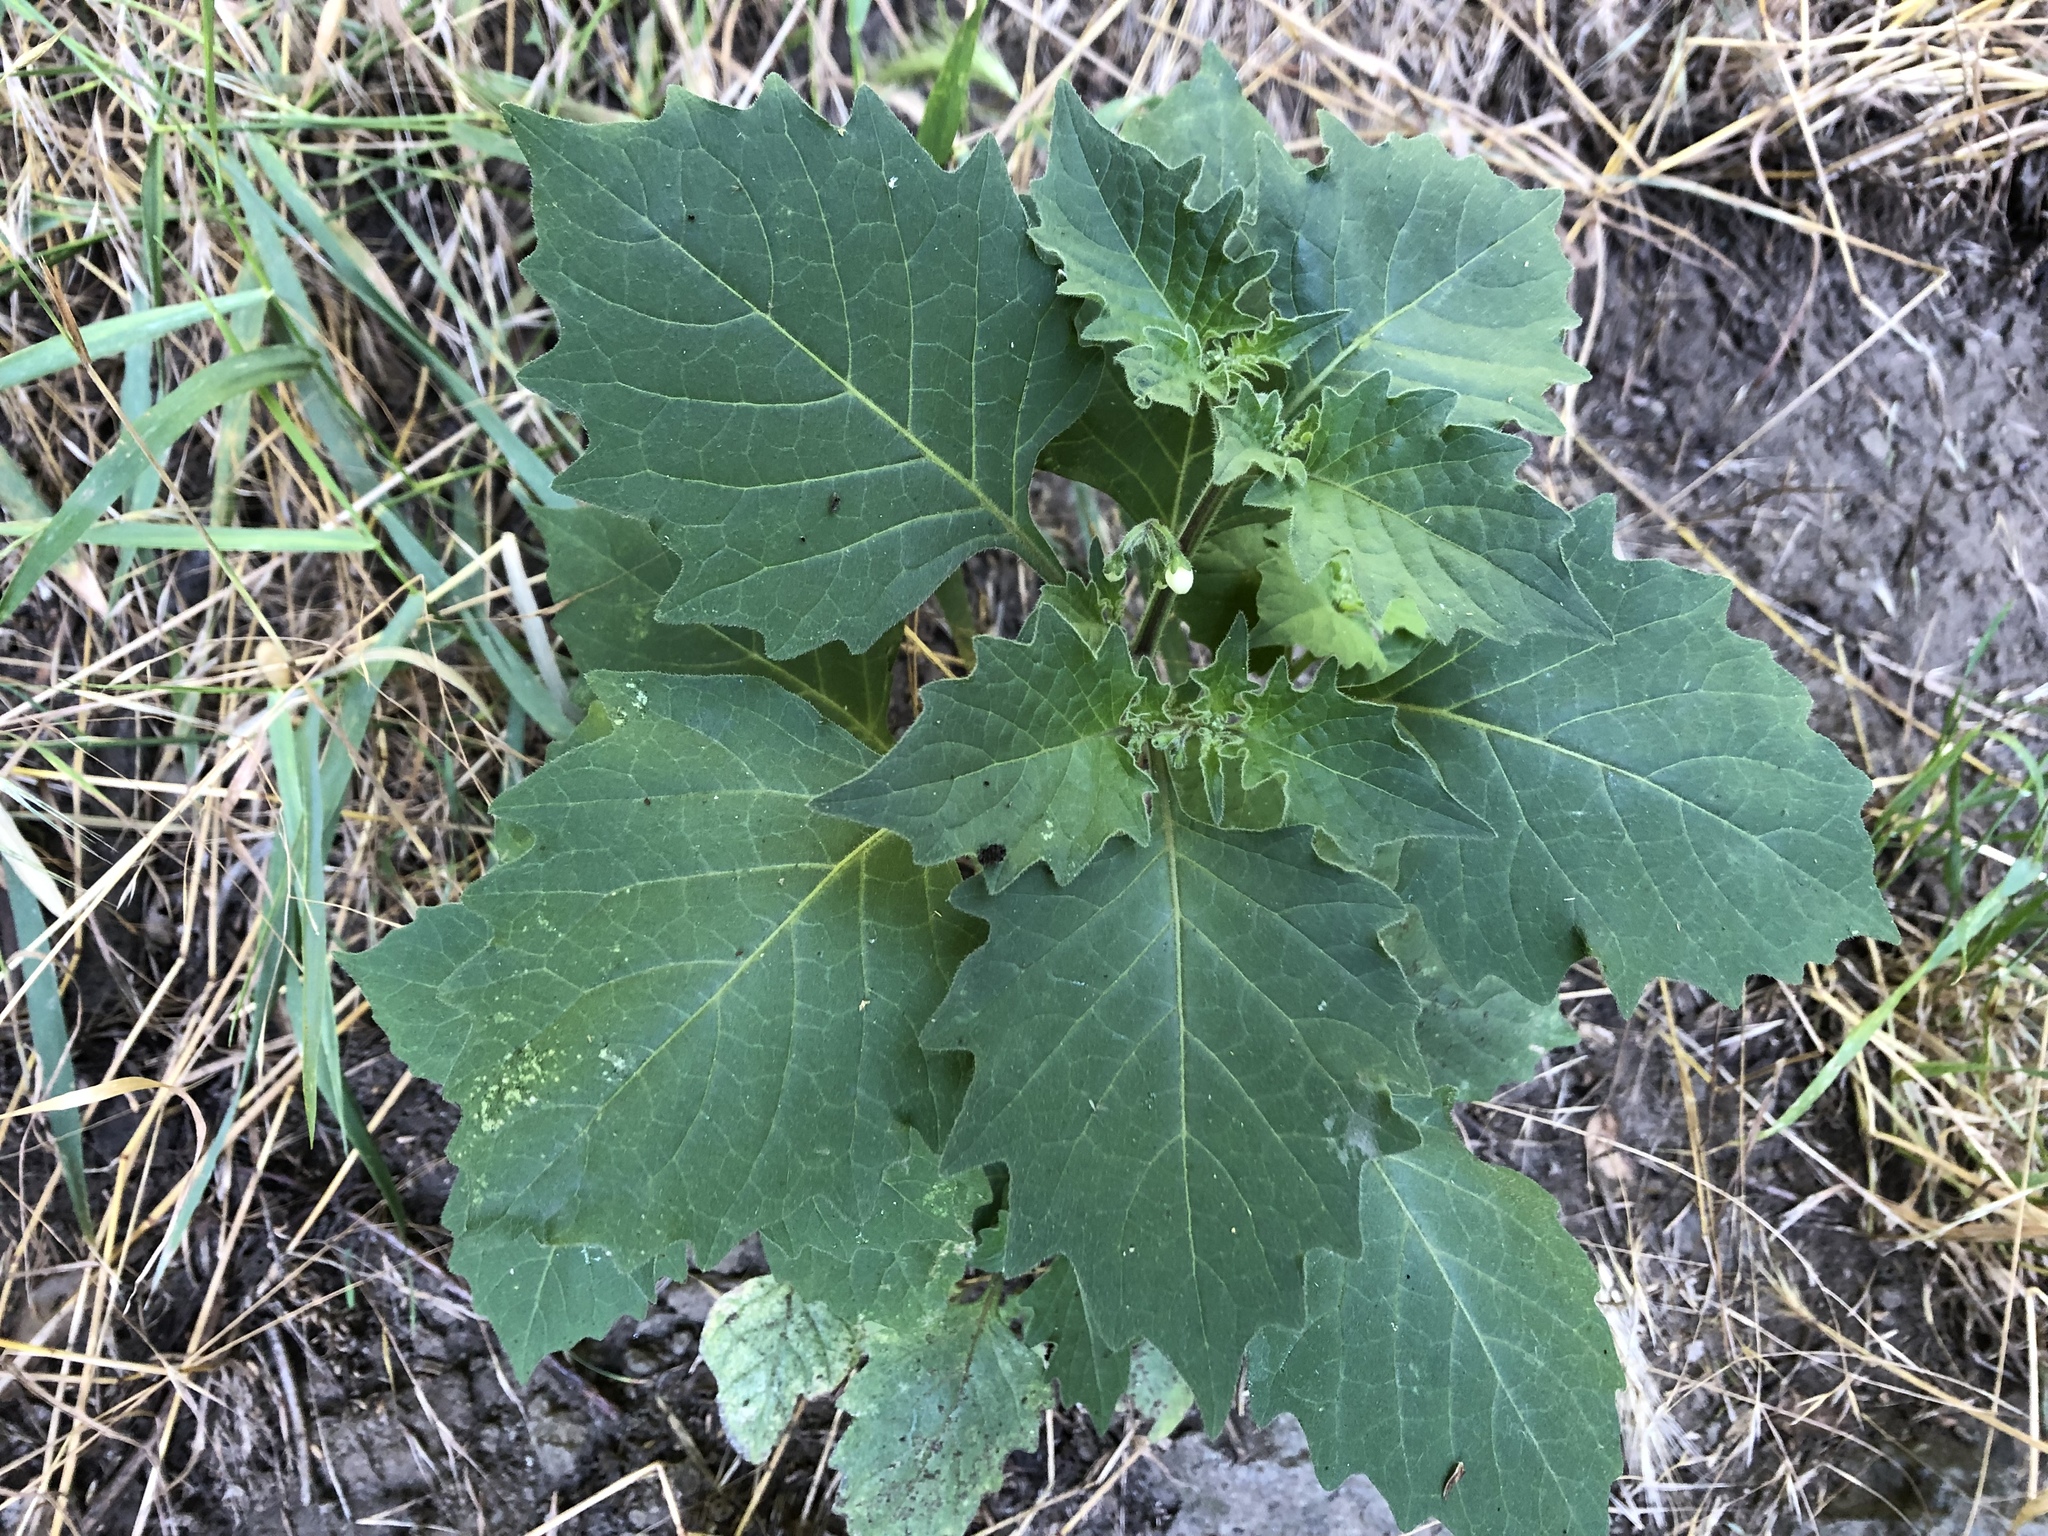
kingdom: Plantae
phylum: Tracheophyta
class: Magnoliopsida
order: Solanales
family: Solanaceae
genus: Solanum
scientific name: Solanum decipiens
